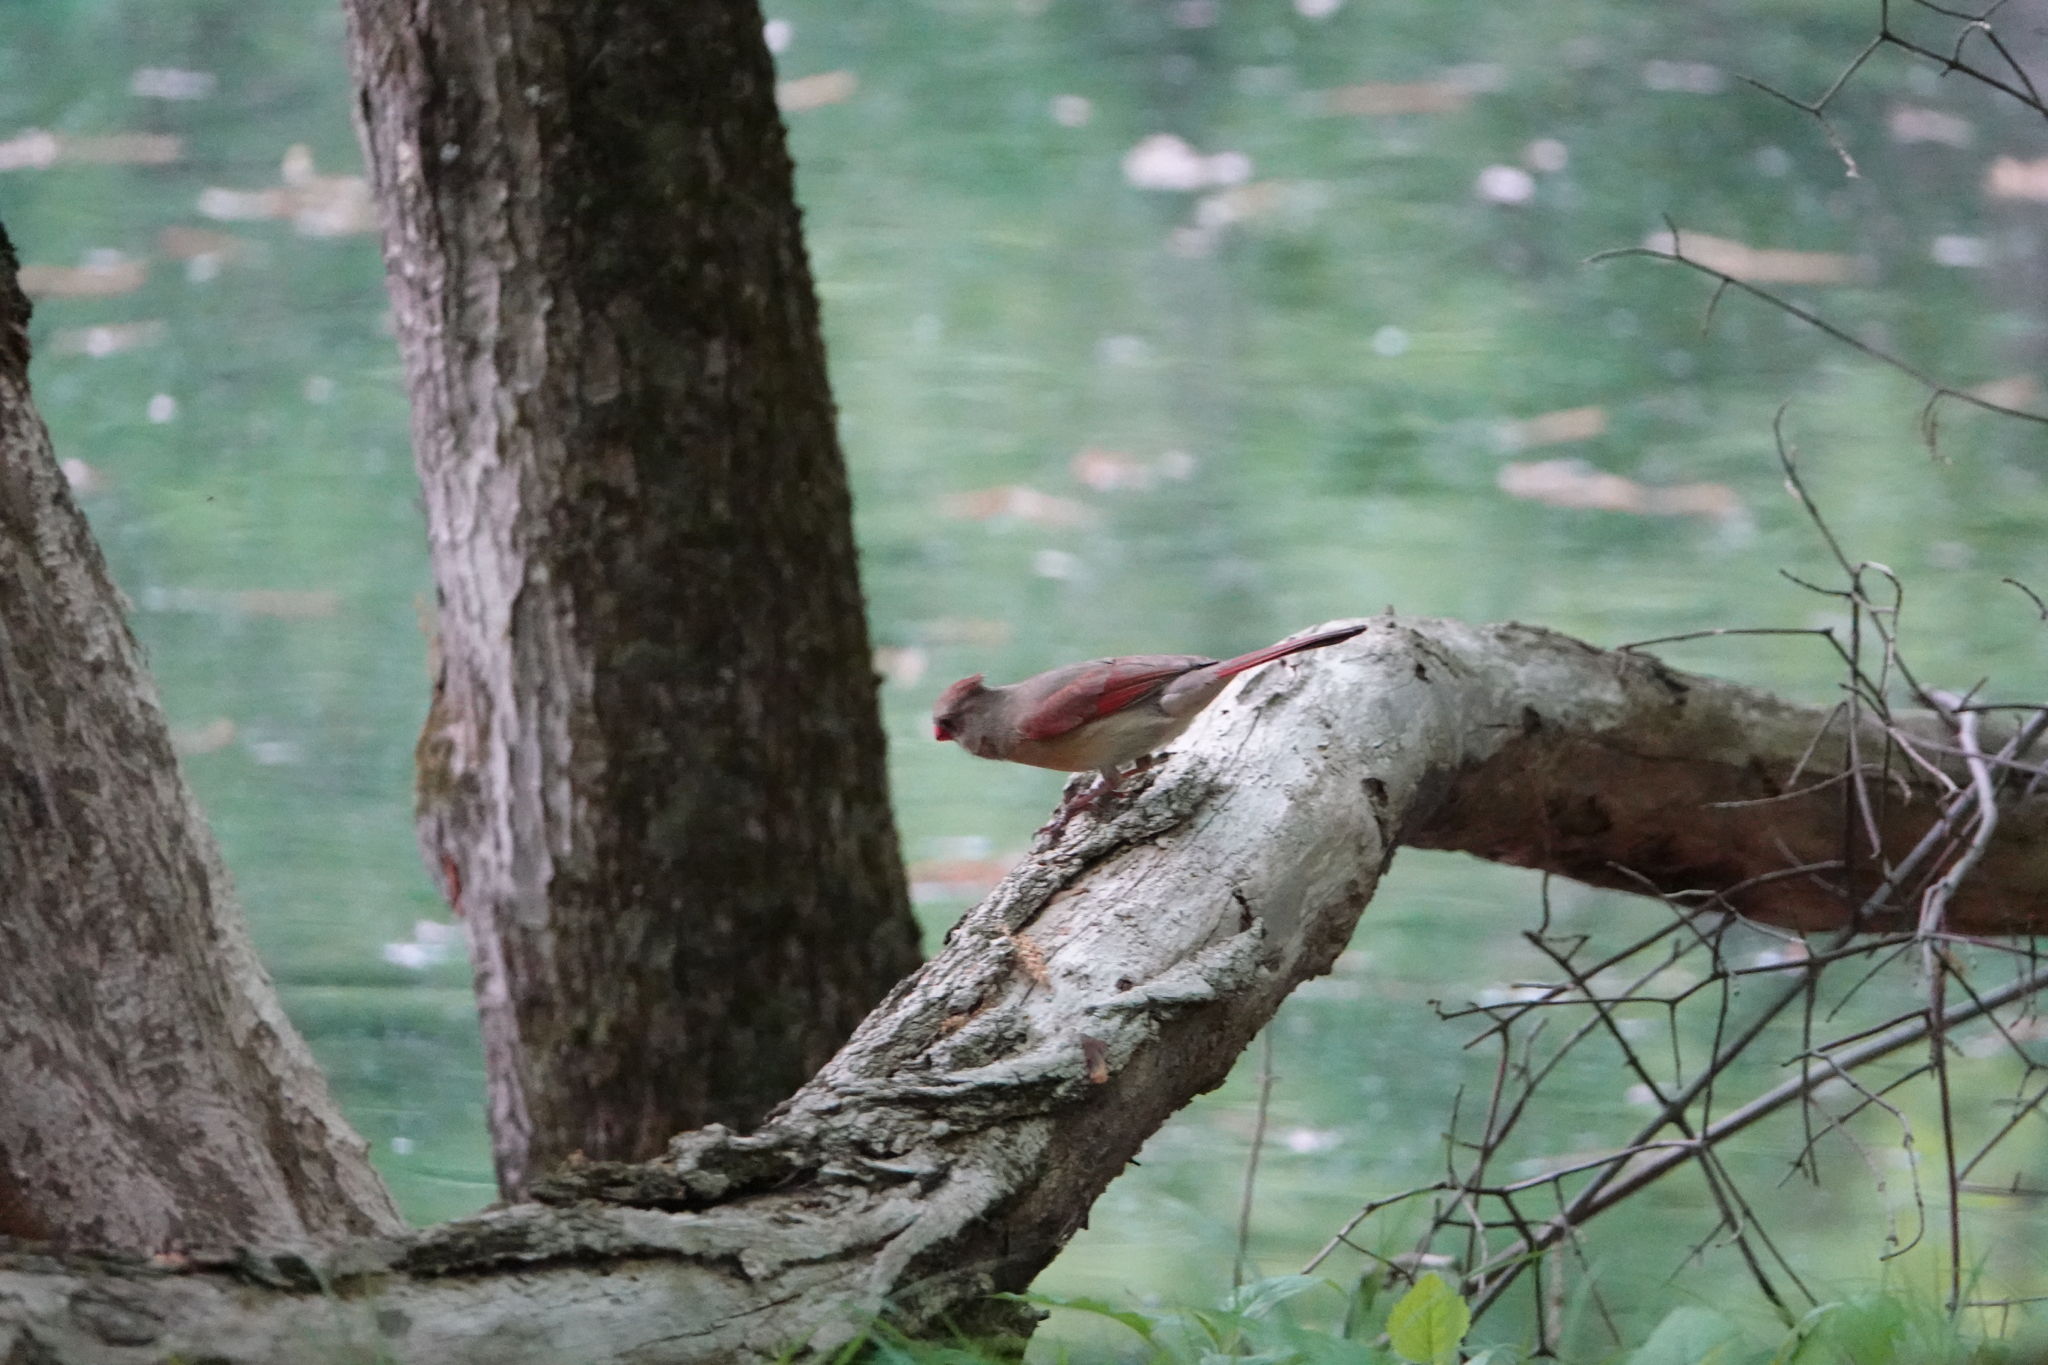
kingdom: Animalia
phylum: Chordata
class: Aves
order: Passeriformes
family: Cardinalidae
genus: Cardinalis
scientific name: Cardinalis cardinalis
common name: Northern cardinal
